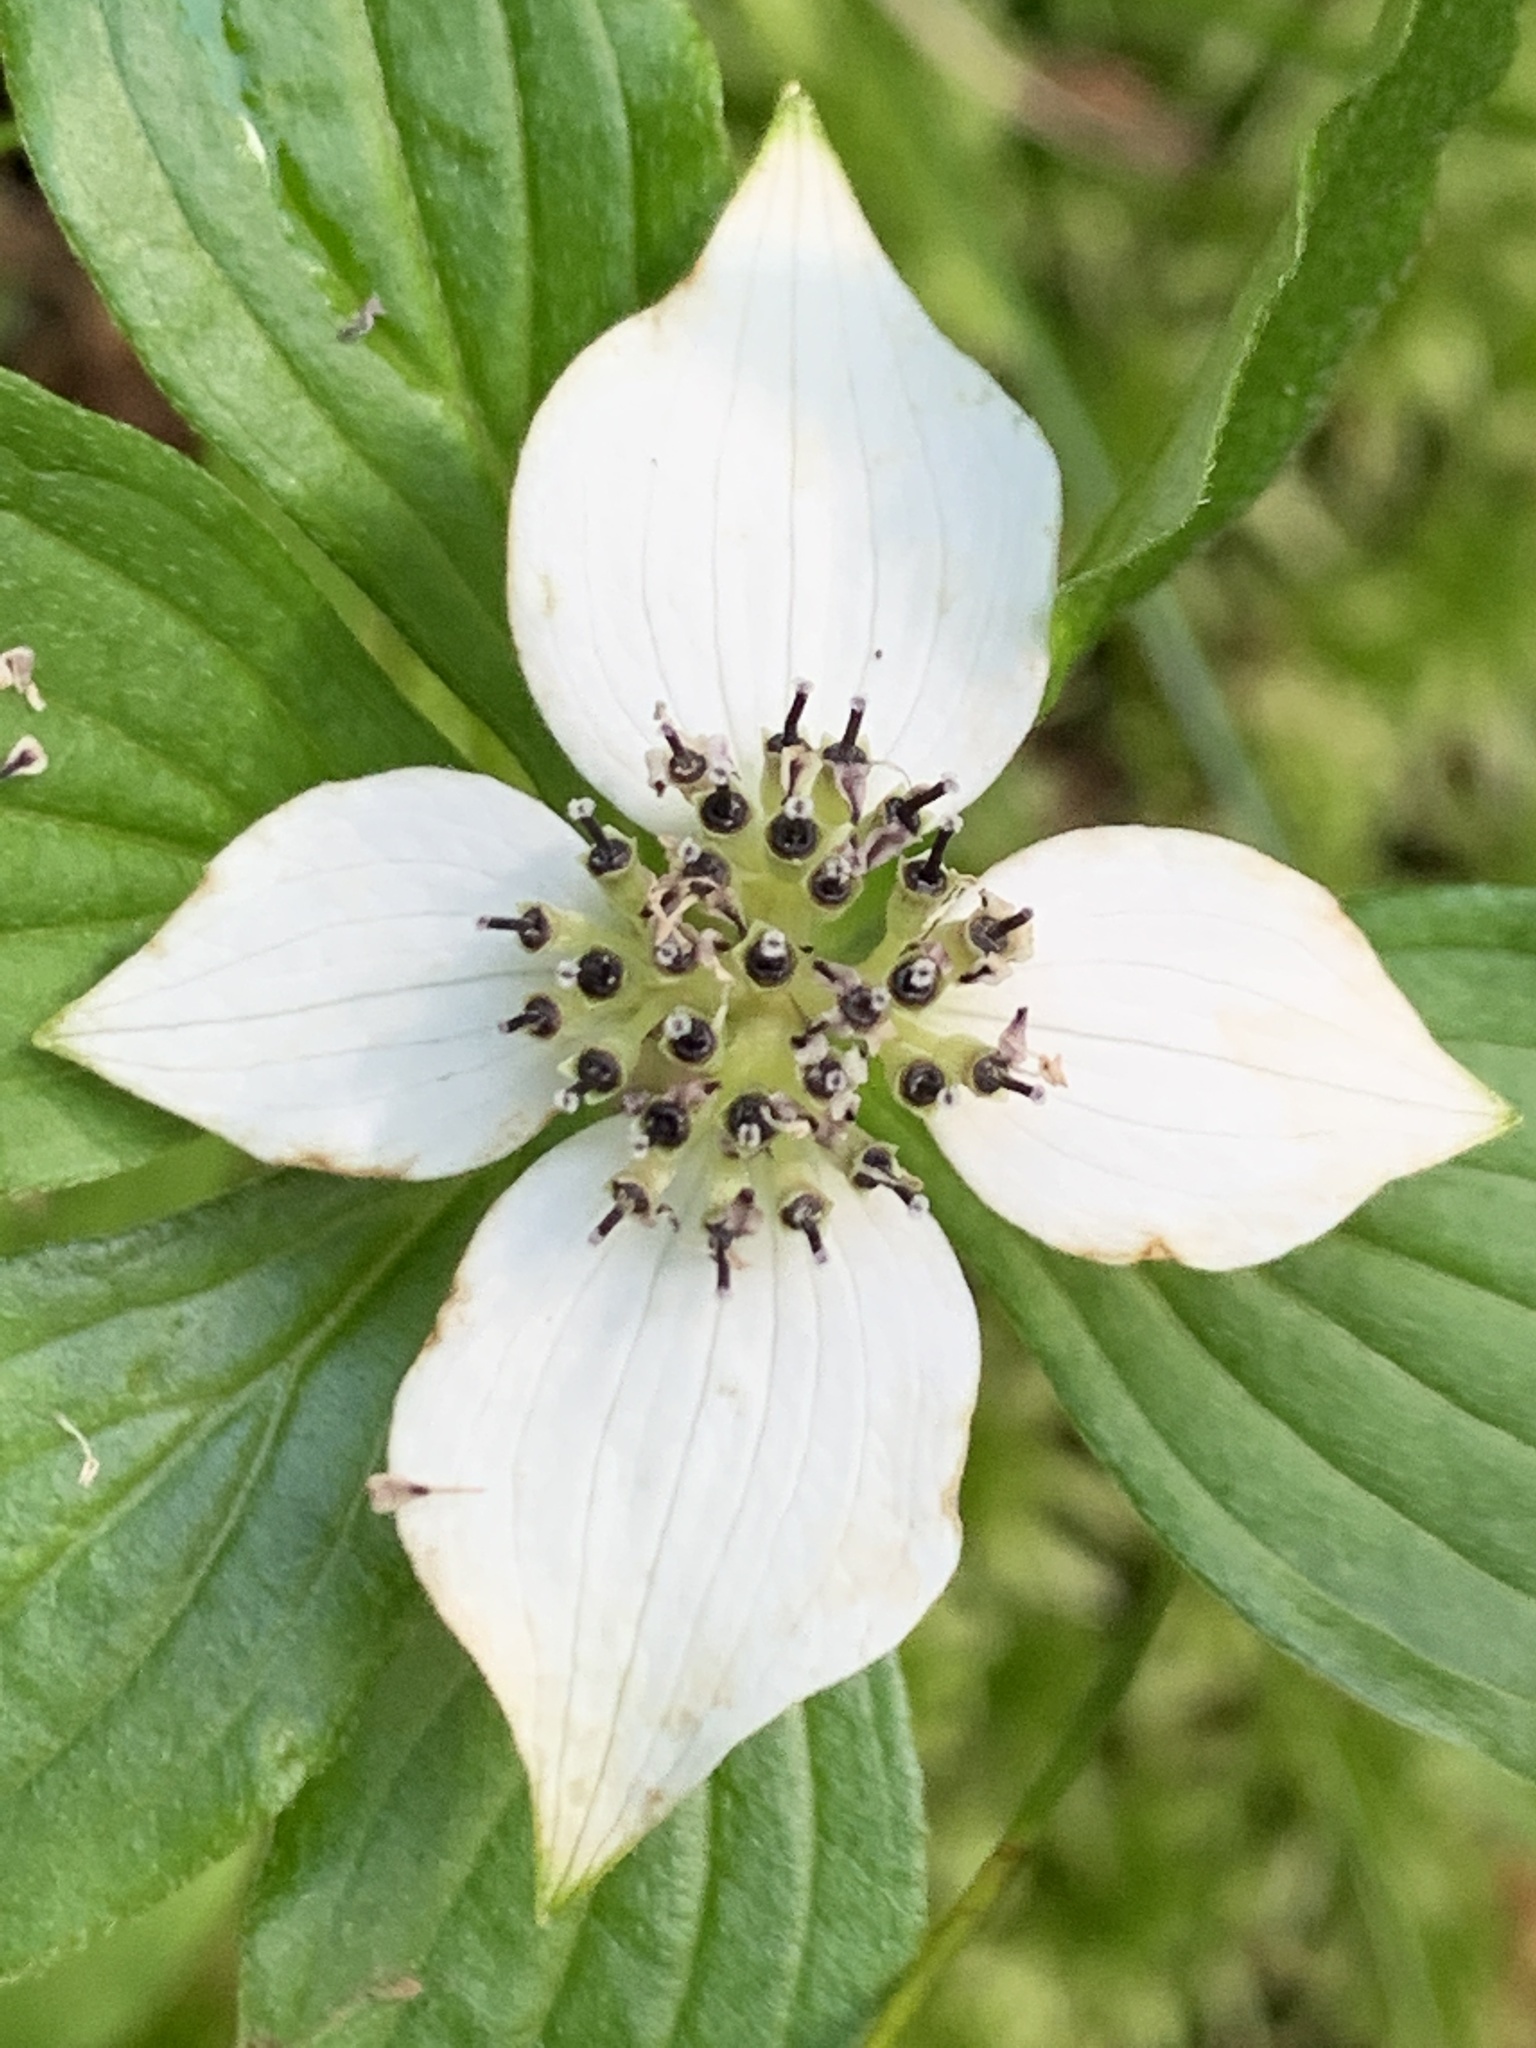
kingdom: Plantae
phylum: Tracheophyta
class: Magnoliopsida
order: Cornales
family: Cornaceae
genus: Cornus
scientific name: Cornus unalaschkensis
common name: Alaska bunchberry
